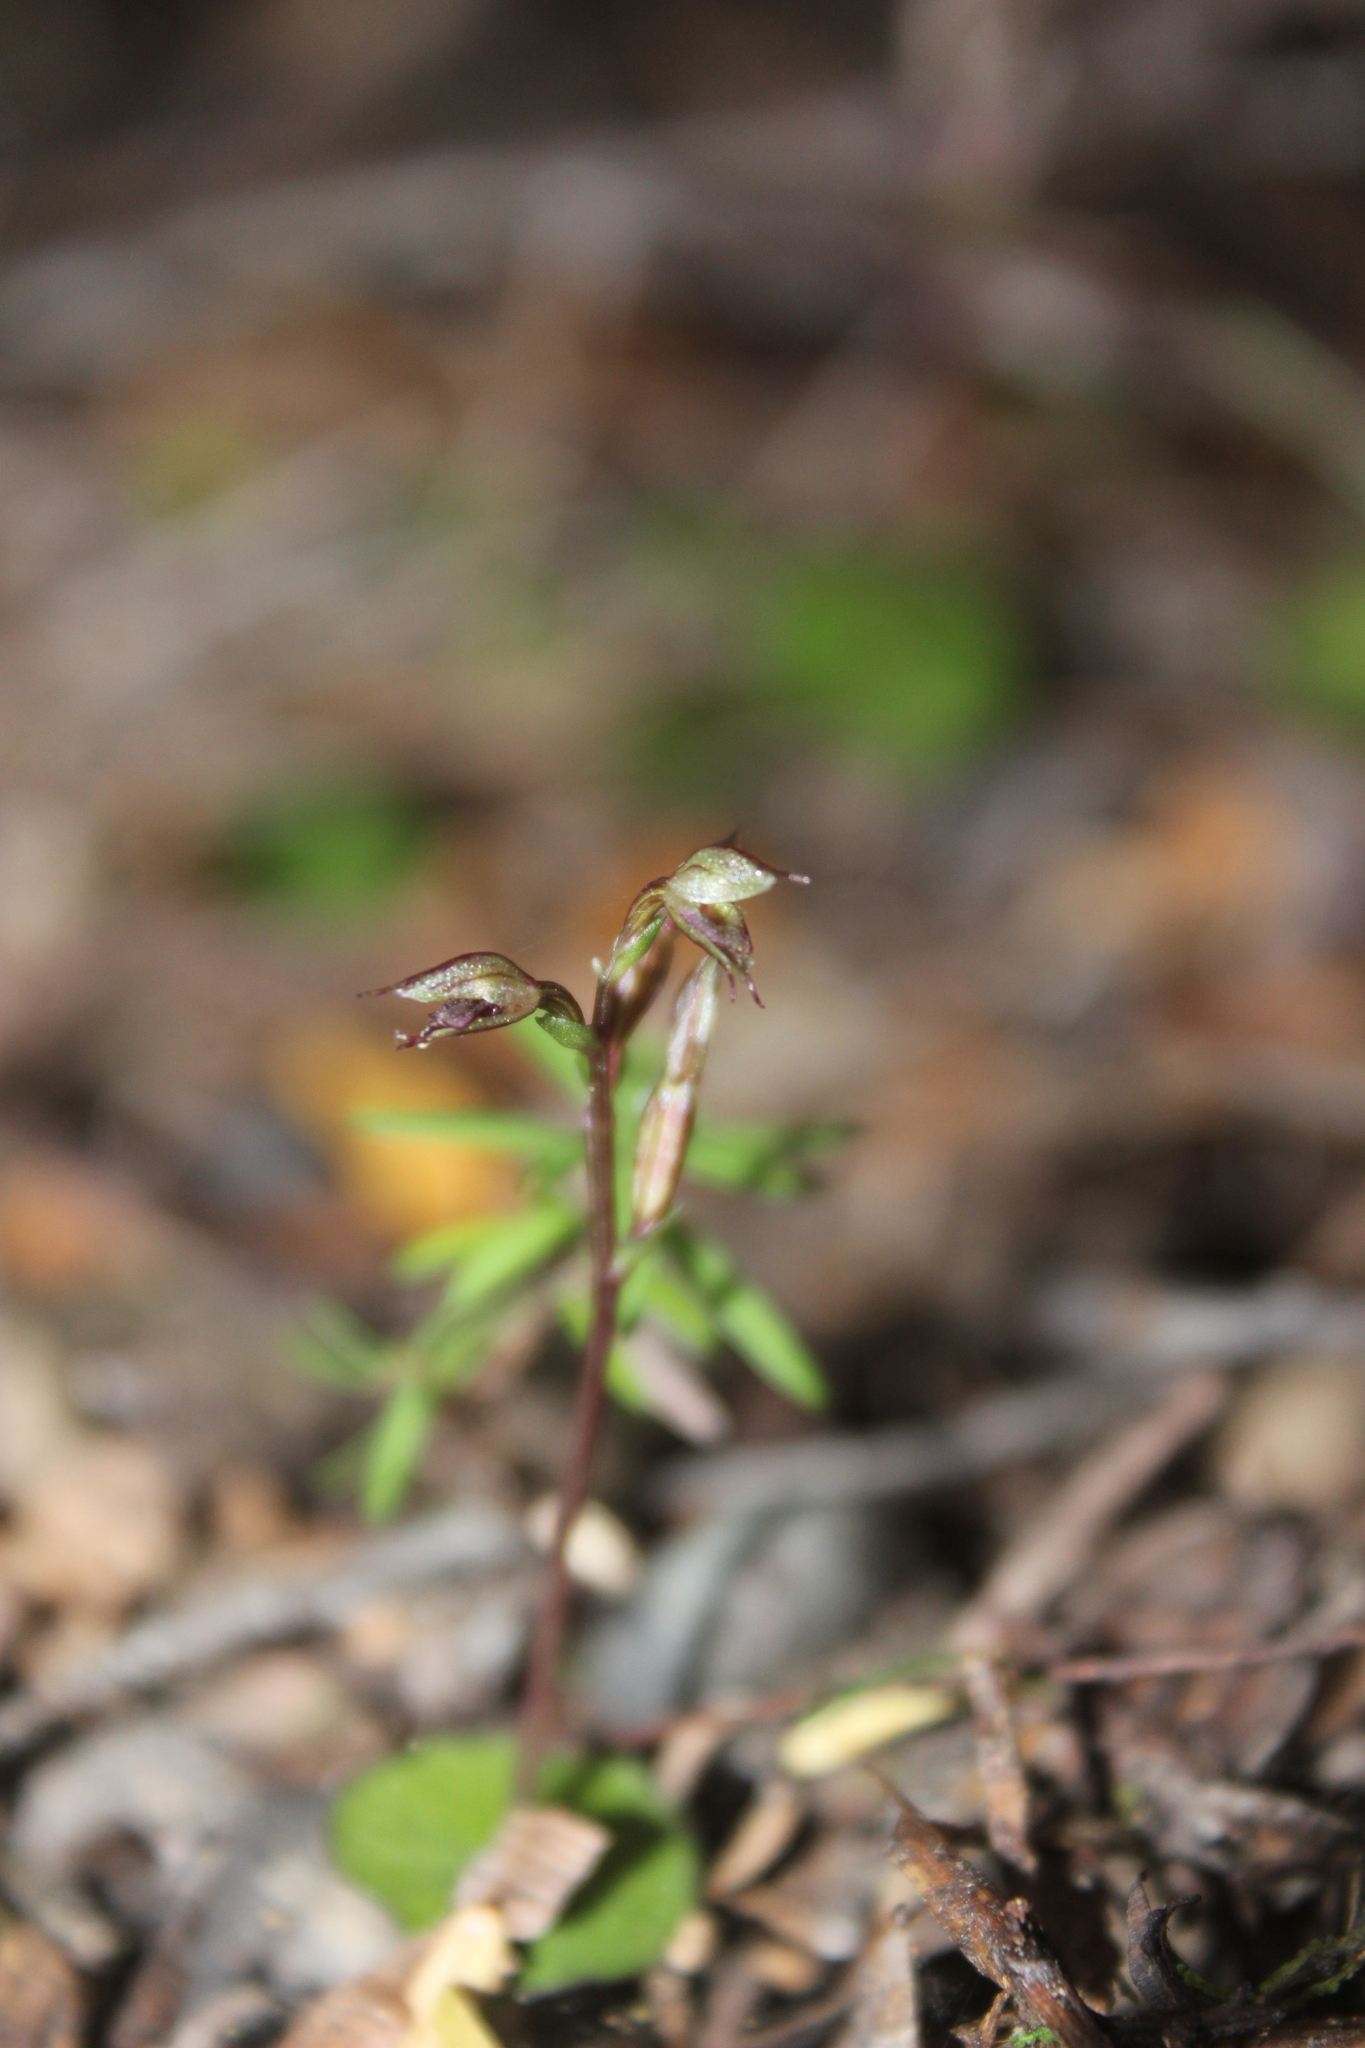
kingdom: Plantae
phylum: Tracheophyta
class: Liliopsida
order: Asparagales
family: Orchidaceae
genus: Acianthus
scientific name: Acianthus sinclairii
